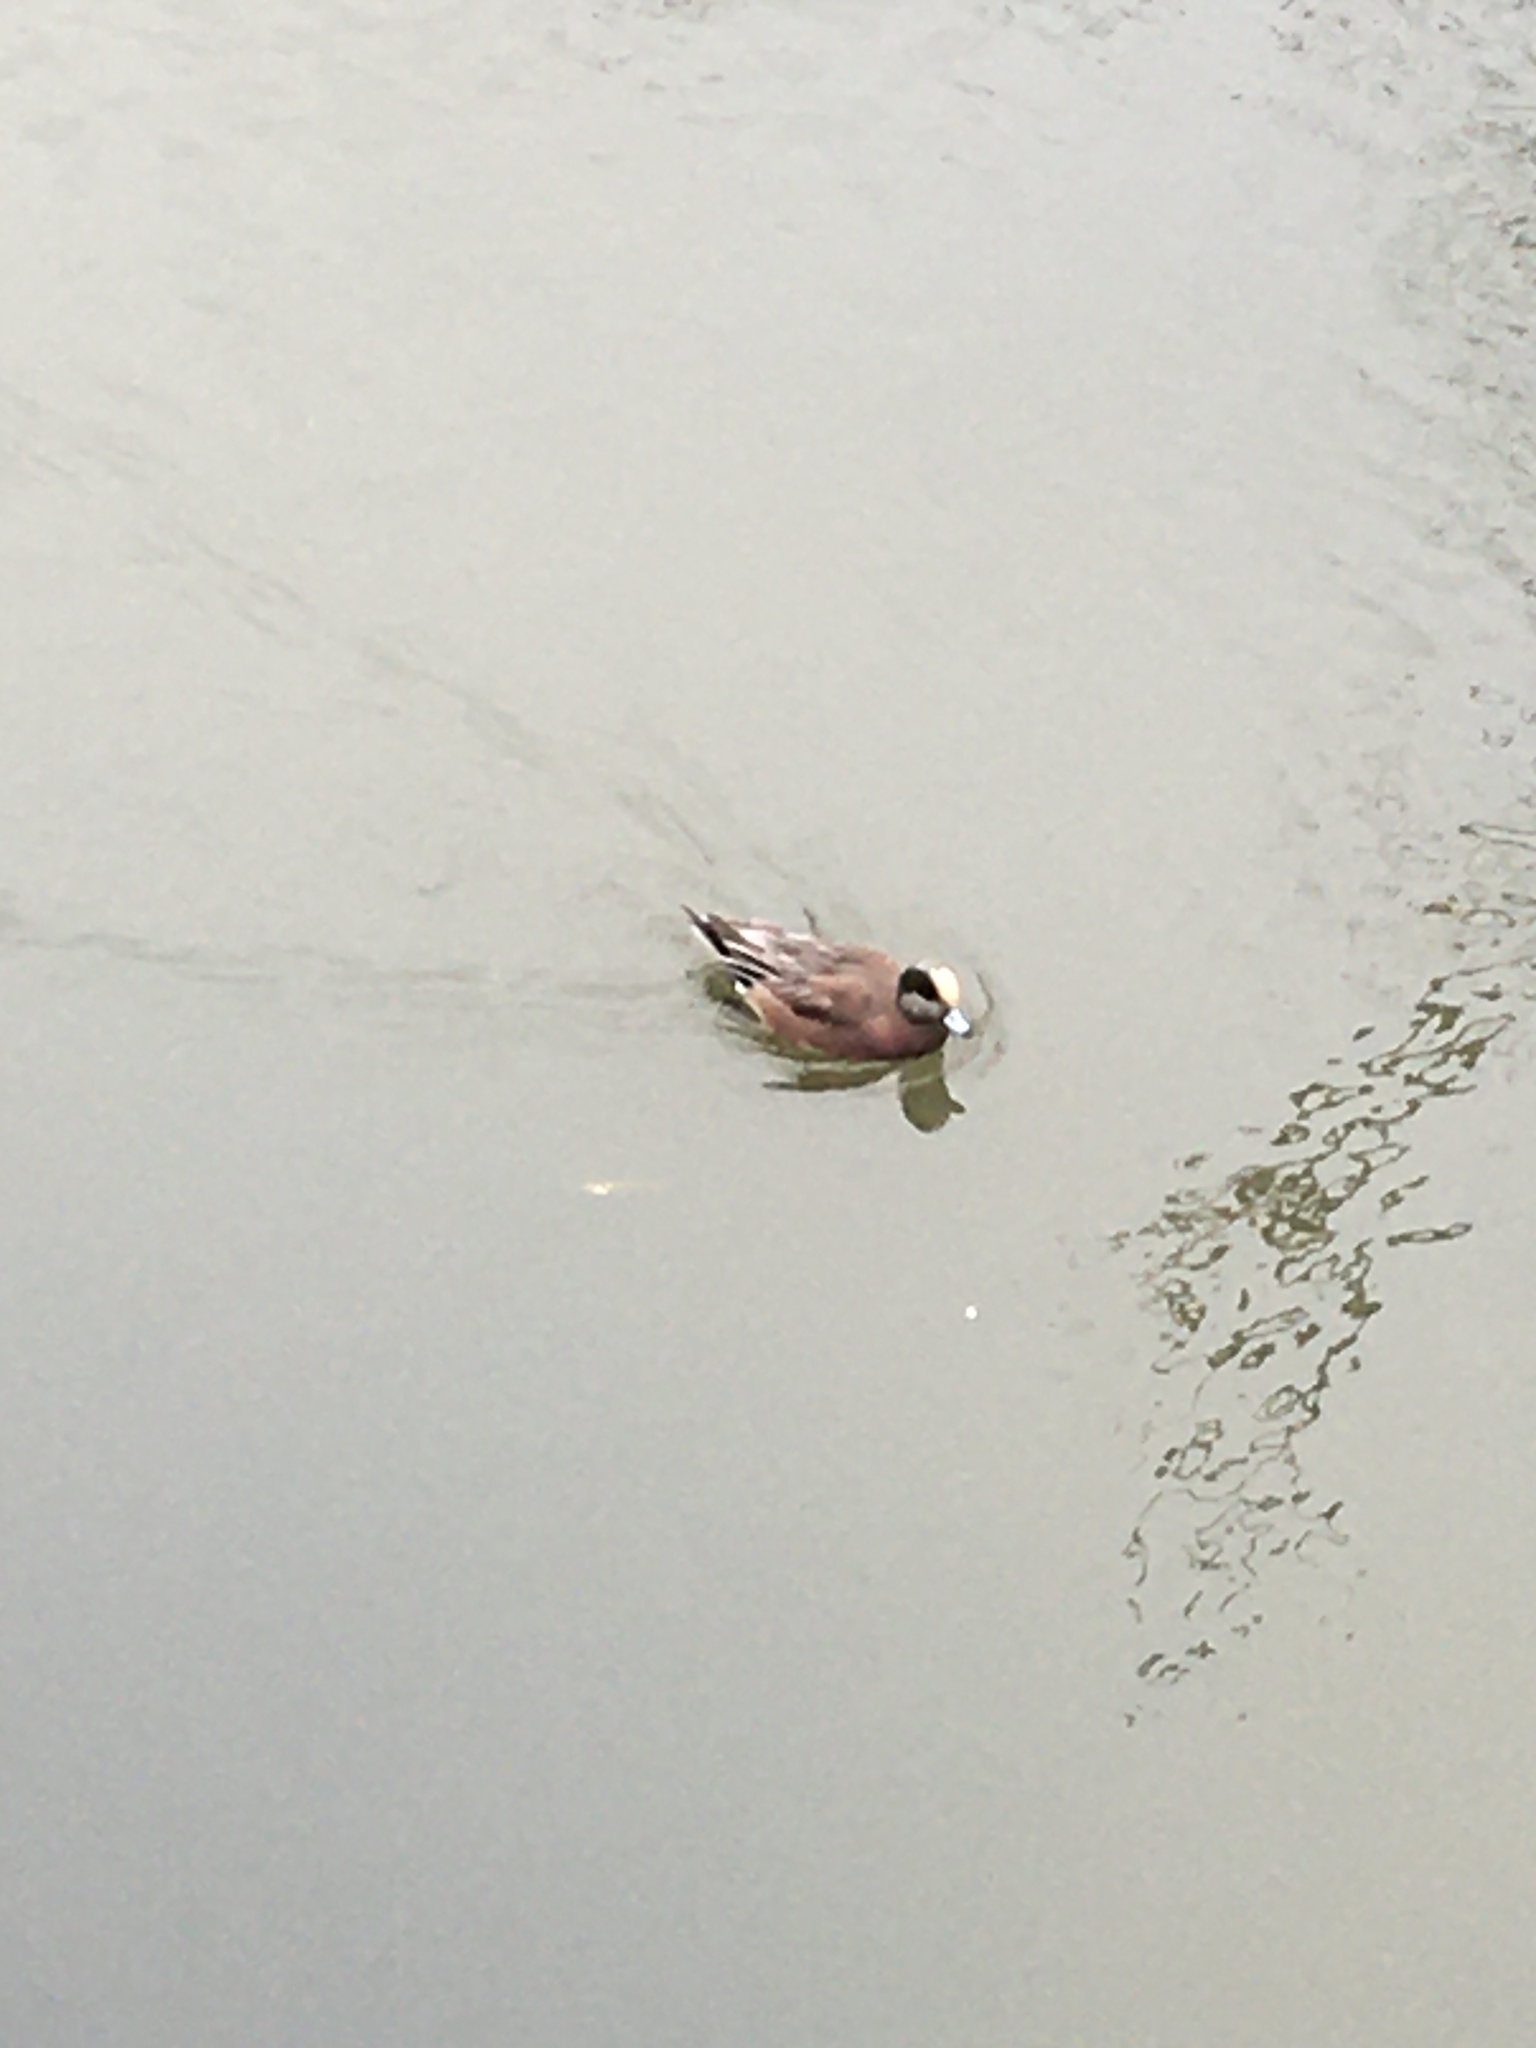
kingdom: Animalia
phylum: Chordata
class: Aves
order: Anseriformes
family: Anatidae
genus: Mareca
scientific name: Mareca americana
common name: American wigeon
